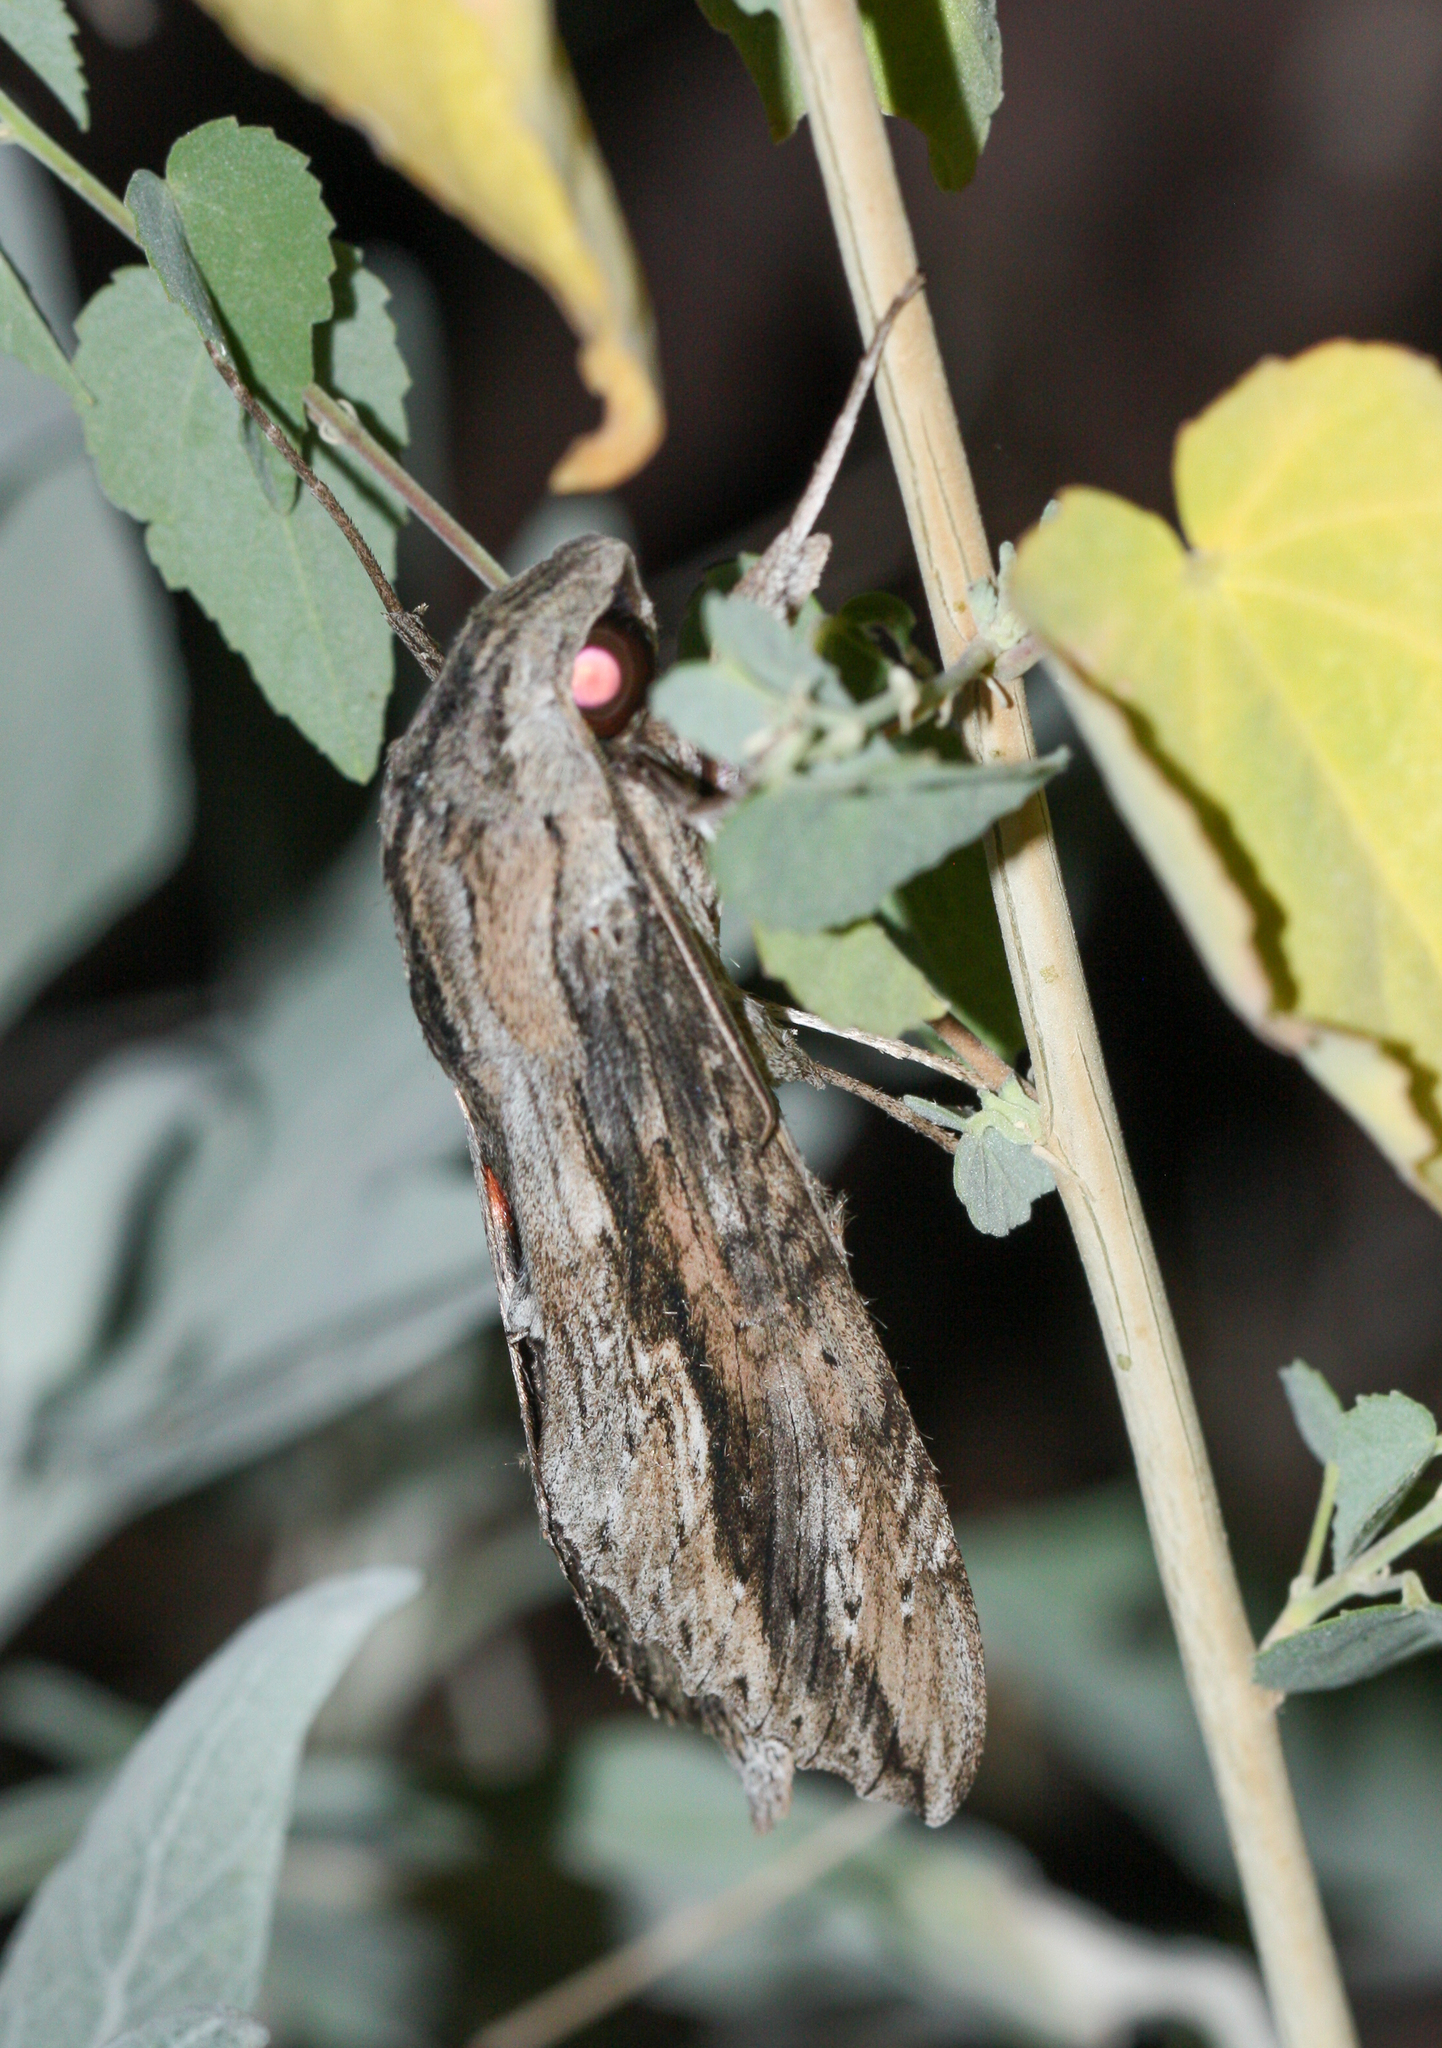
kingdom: Animalia
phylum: Arthropoda
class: Insecta
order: Lepidoptera
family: Sphingidae
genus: Erinnyis
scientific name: Erinnyis ello
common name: Ello sphinx
